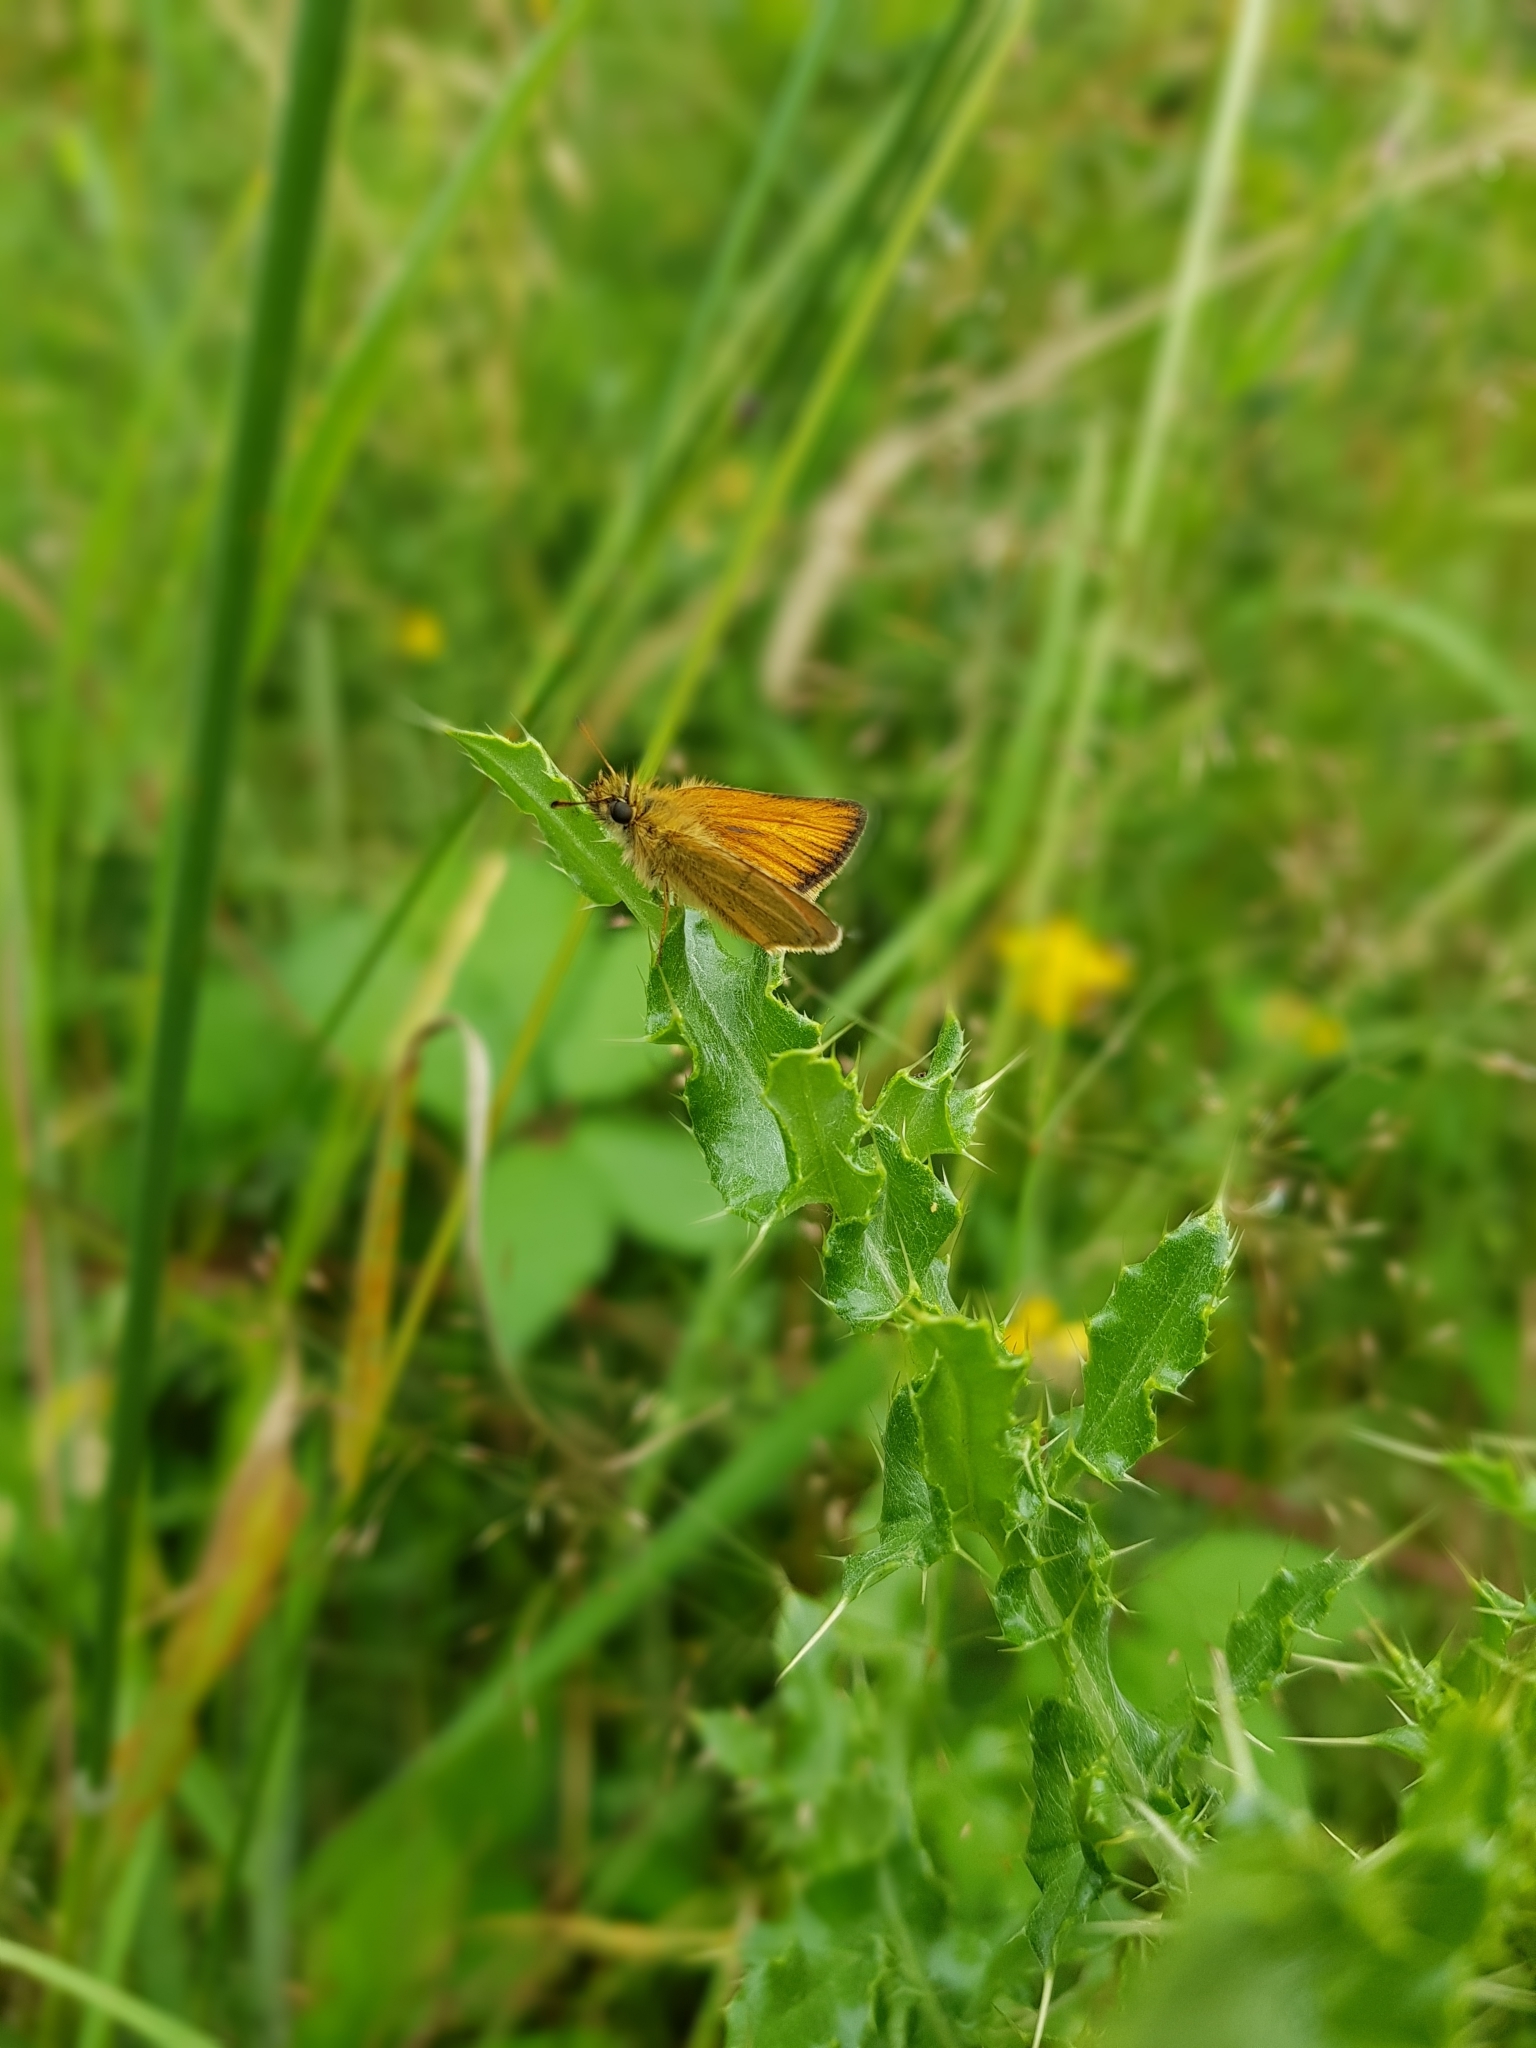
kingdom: Animalia
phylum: Arthropoda
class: Insecta
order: Lepidoptera
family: Hesperiidae
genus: Thymelicus
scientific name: Thymelicus lineola
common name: Essex skipper
